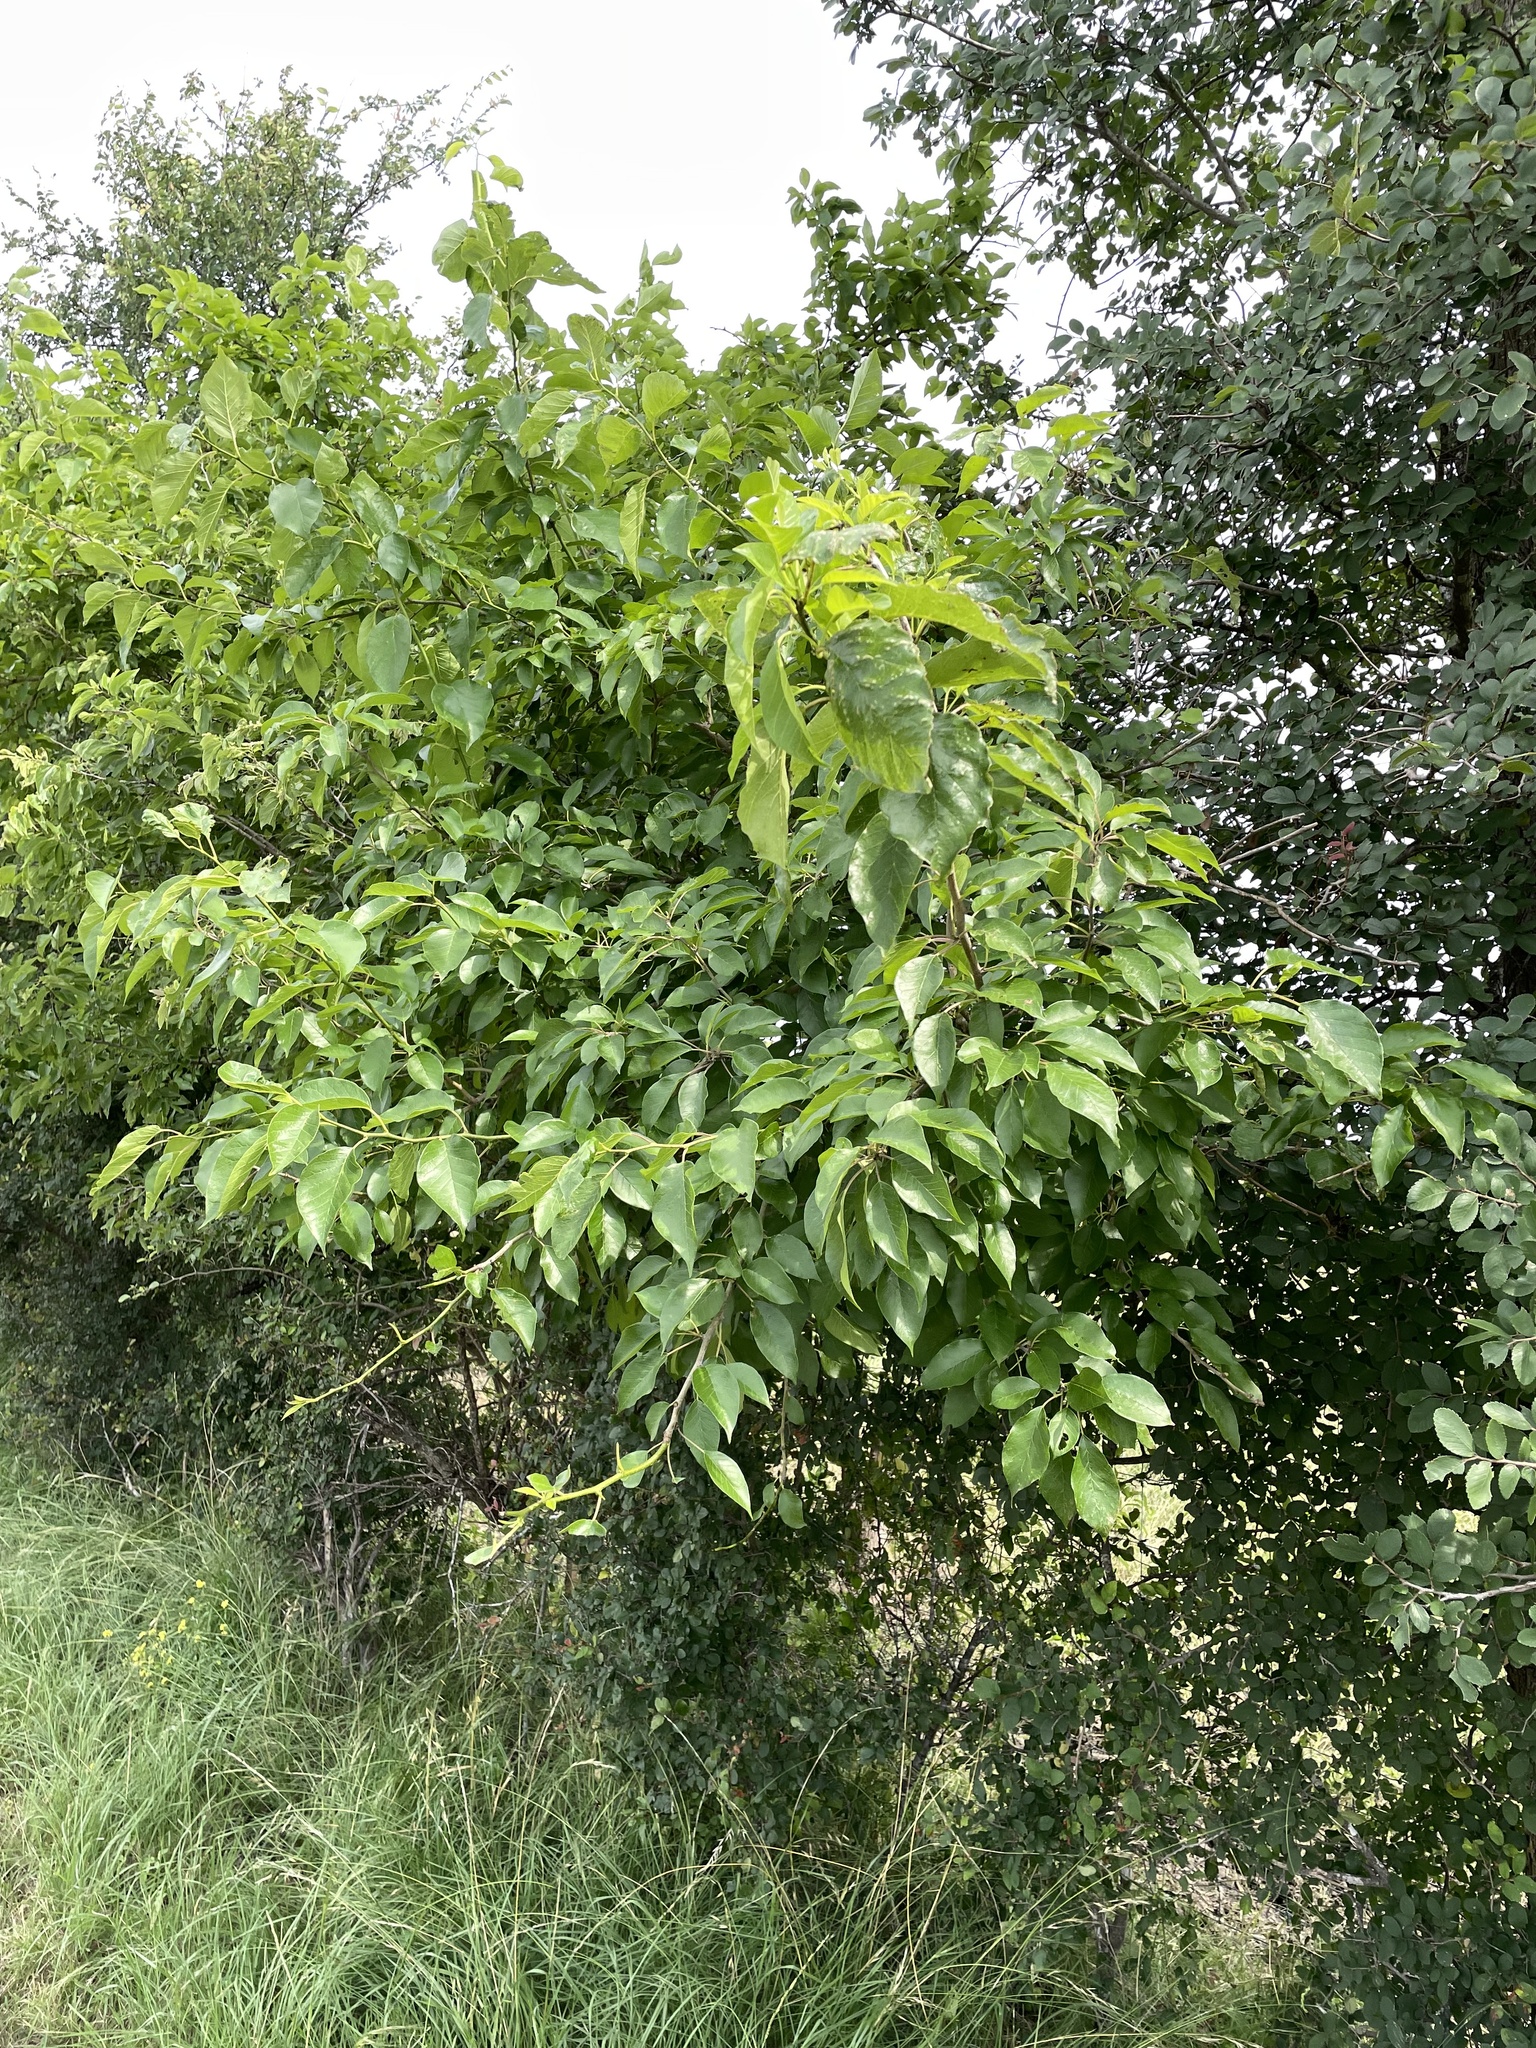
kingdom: Plantae
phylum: Tracheophyta
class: Magnoliopsida
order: Rosales
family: Moraceae
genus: Maclura
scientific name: Maclura pomifera
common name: Osage-orange
